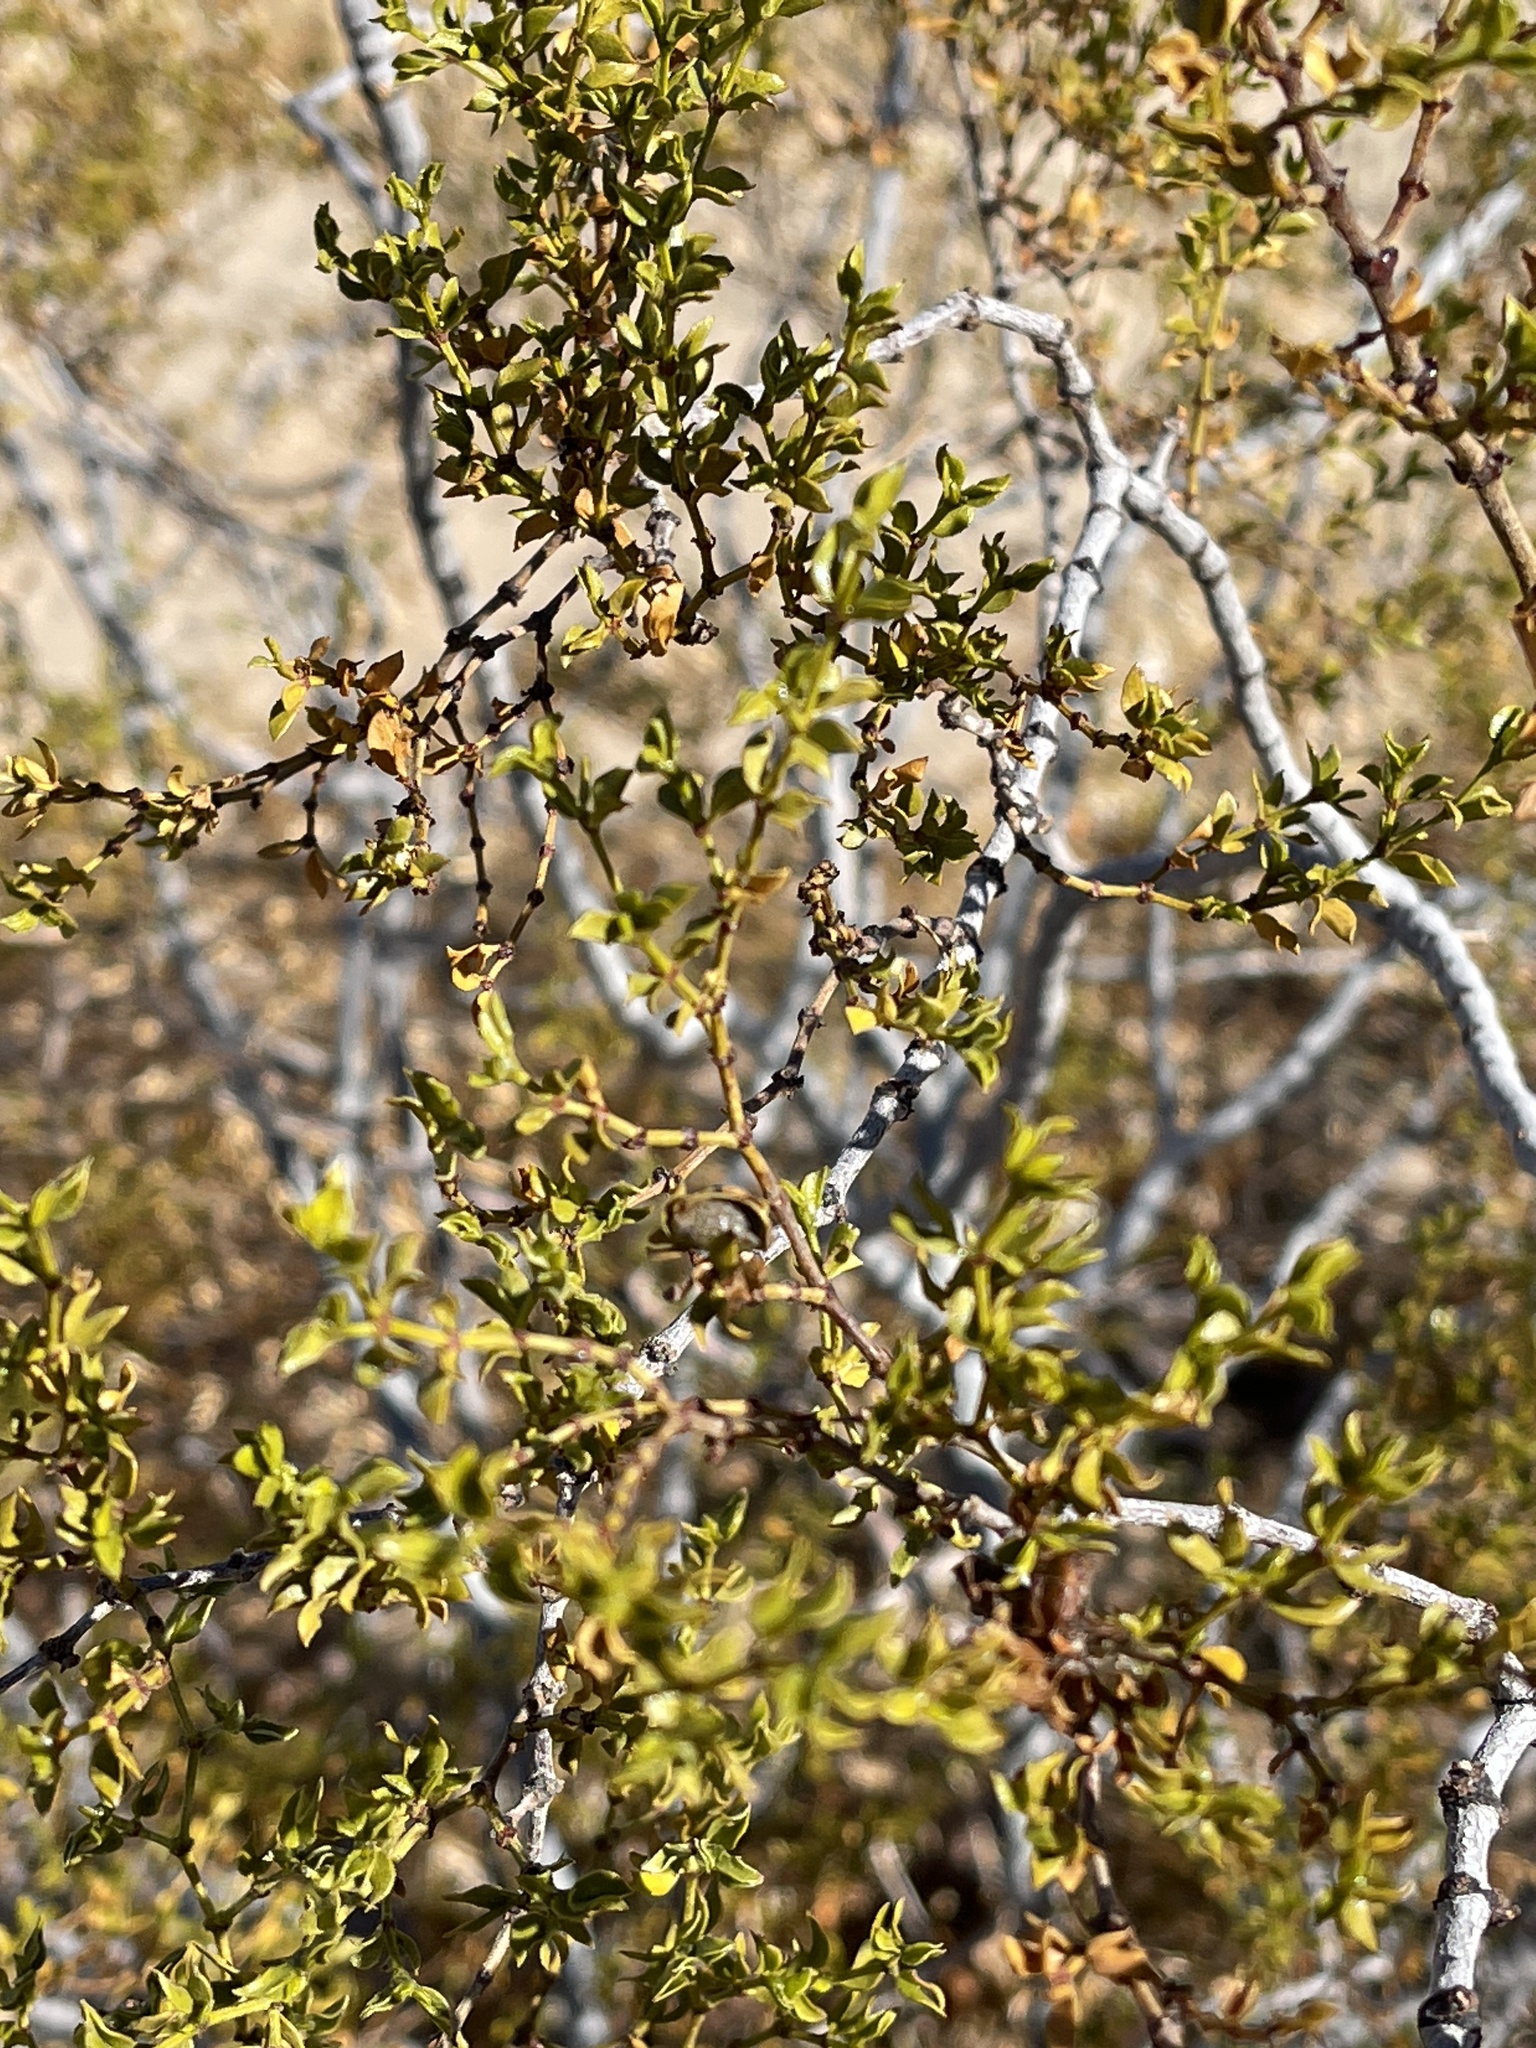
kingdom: Plantae
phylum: Tracheophyta
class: Magnoliopsida
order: Zygophyllales
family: Zygophyllaceae
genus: Larrea
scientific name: Larrea tridentata
